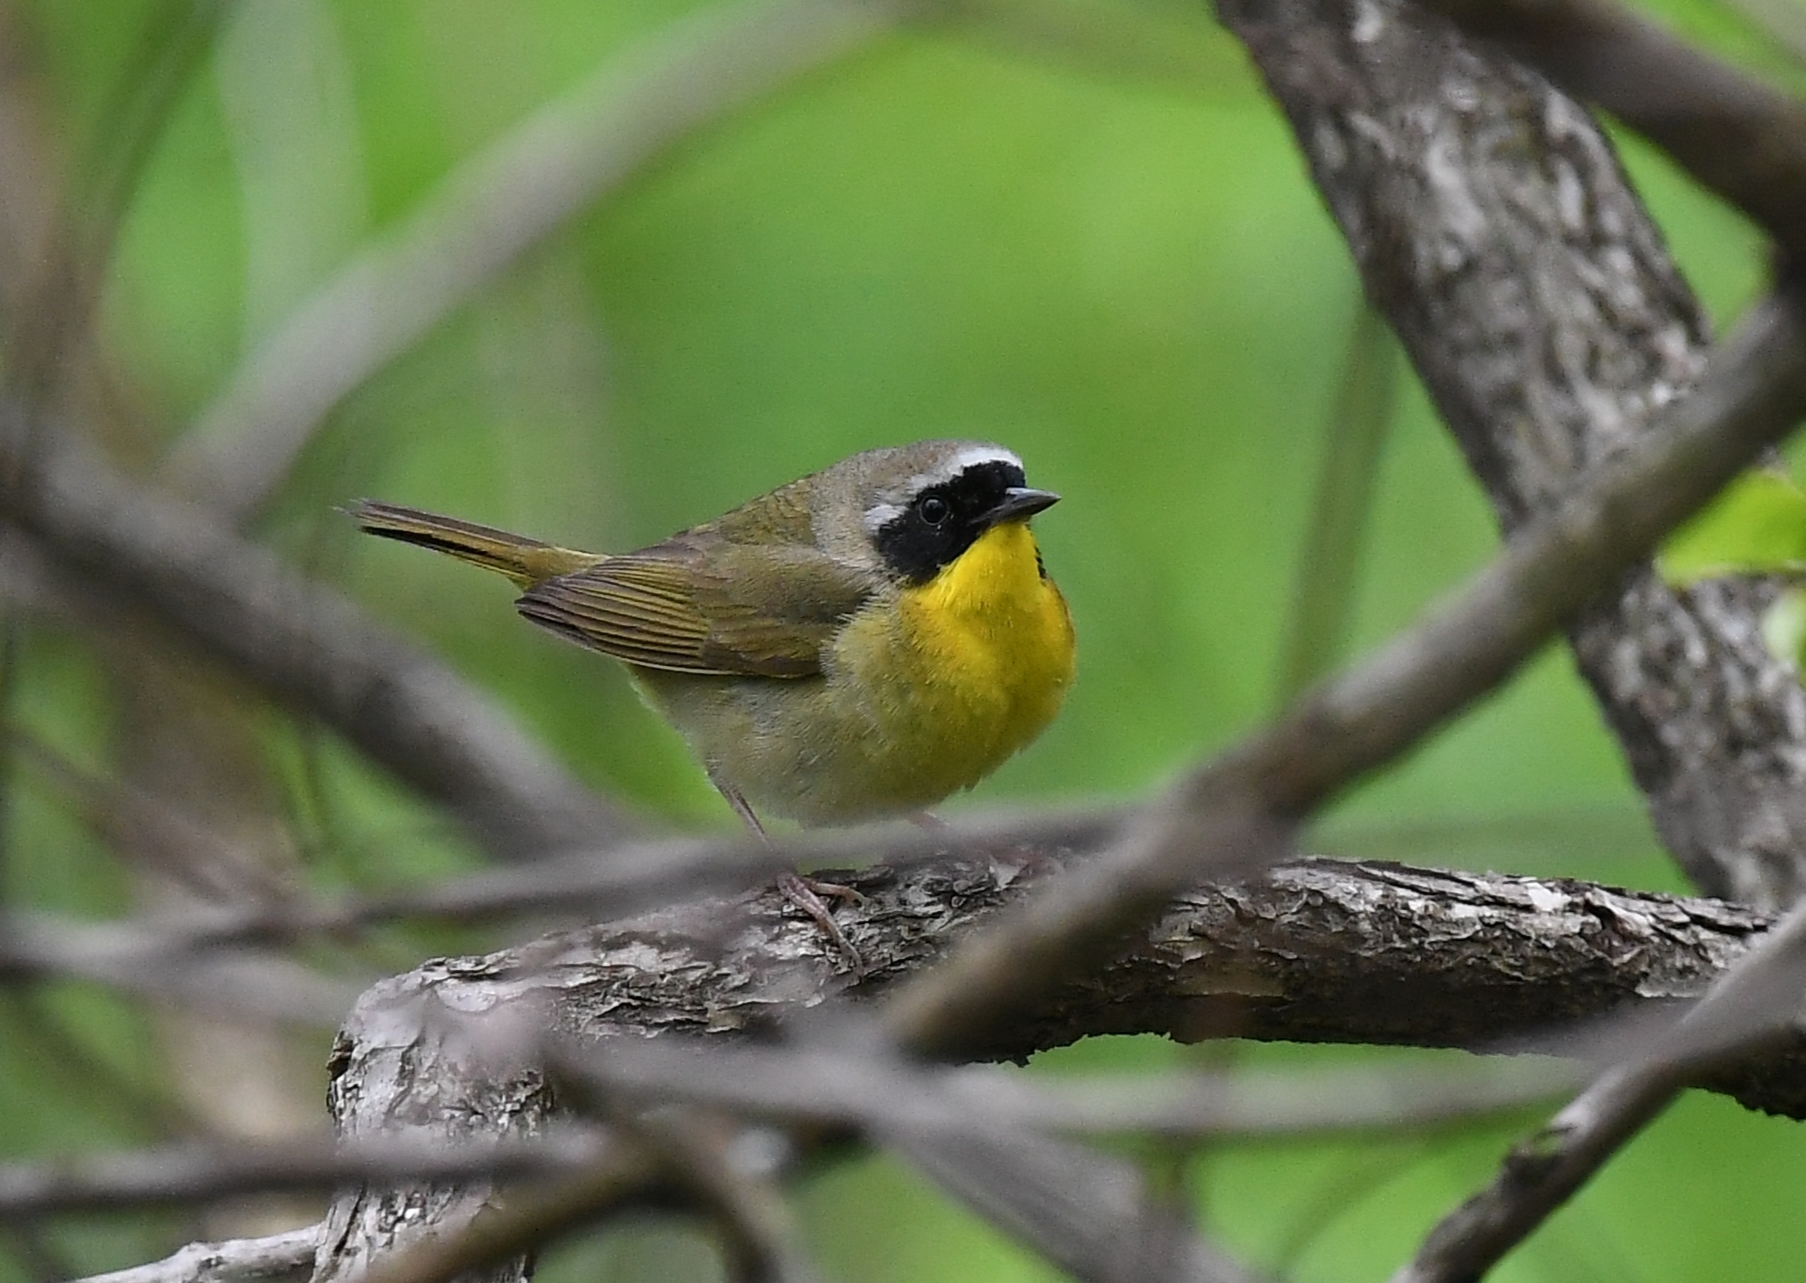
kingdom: Animalia
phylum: Chordata
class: Aves
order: Passeriformes
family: Parulidae
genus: Geothlypis
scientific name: Geothlypis trichas
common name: Common yellowthroat
